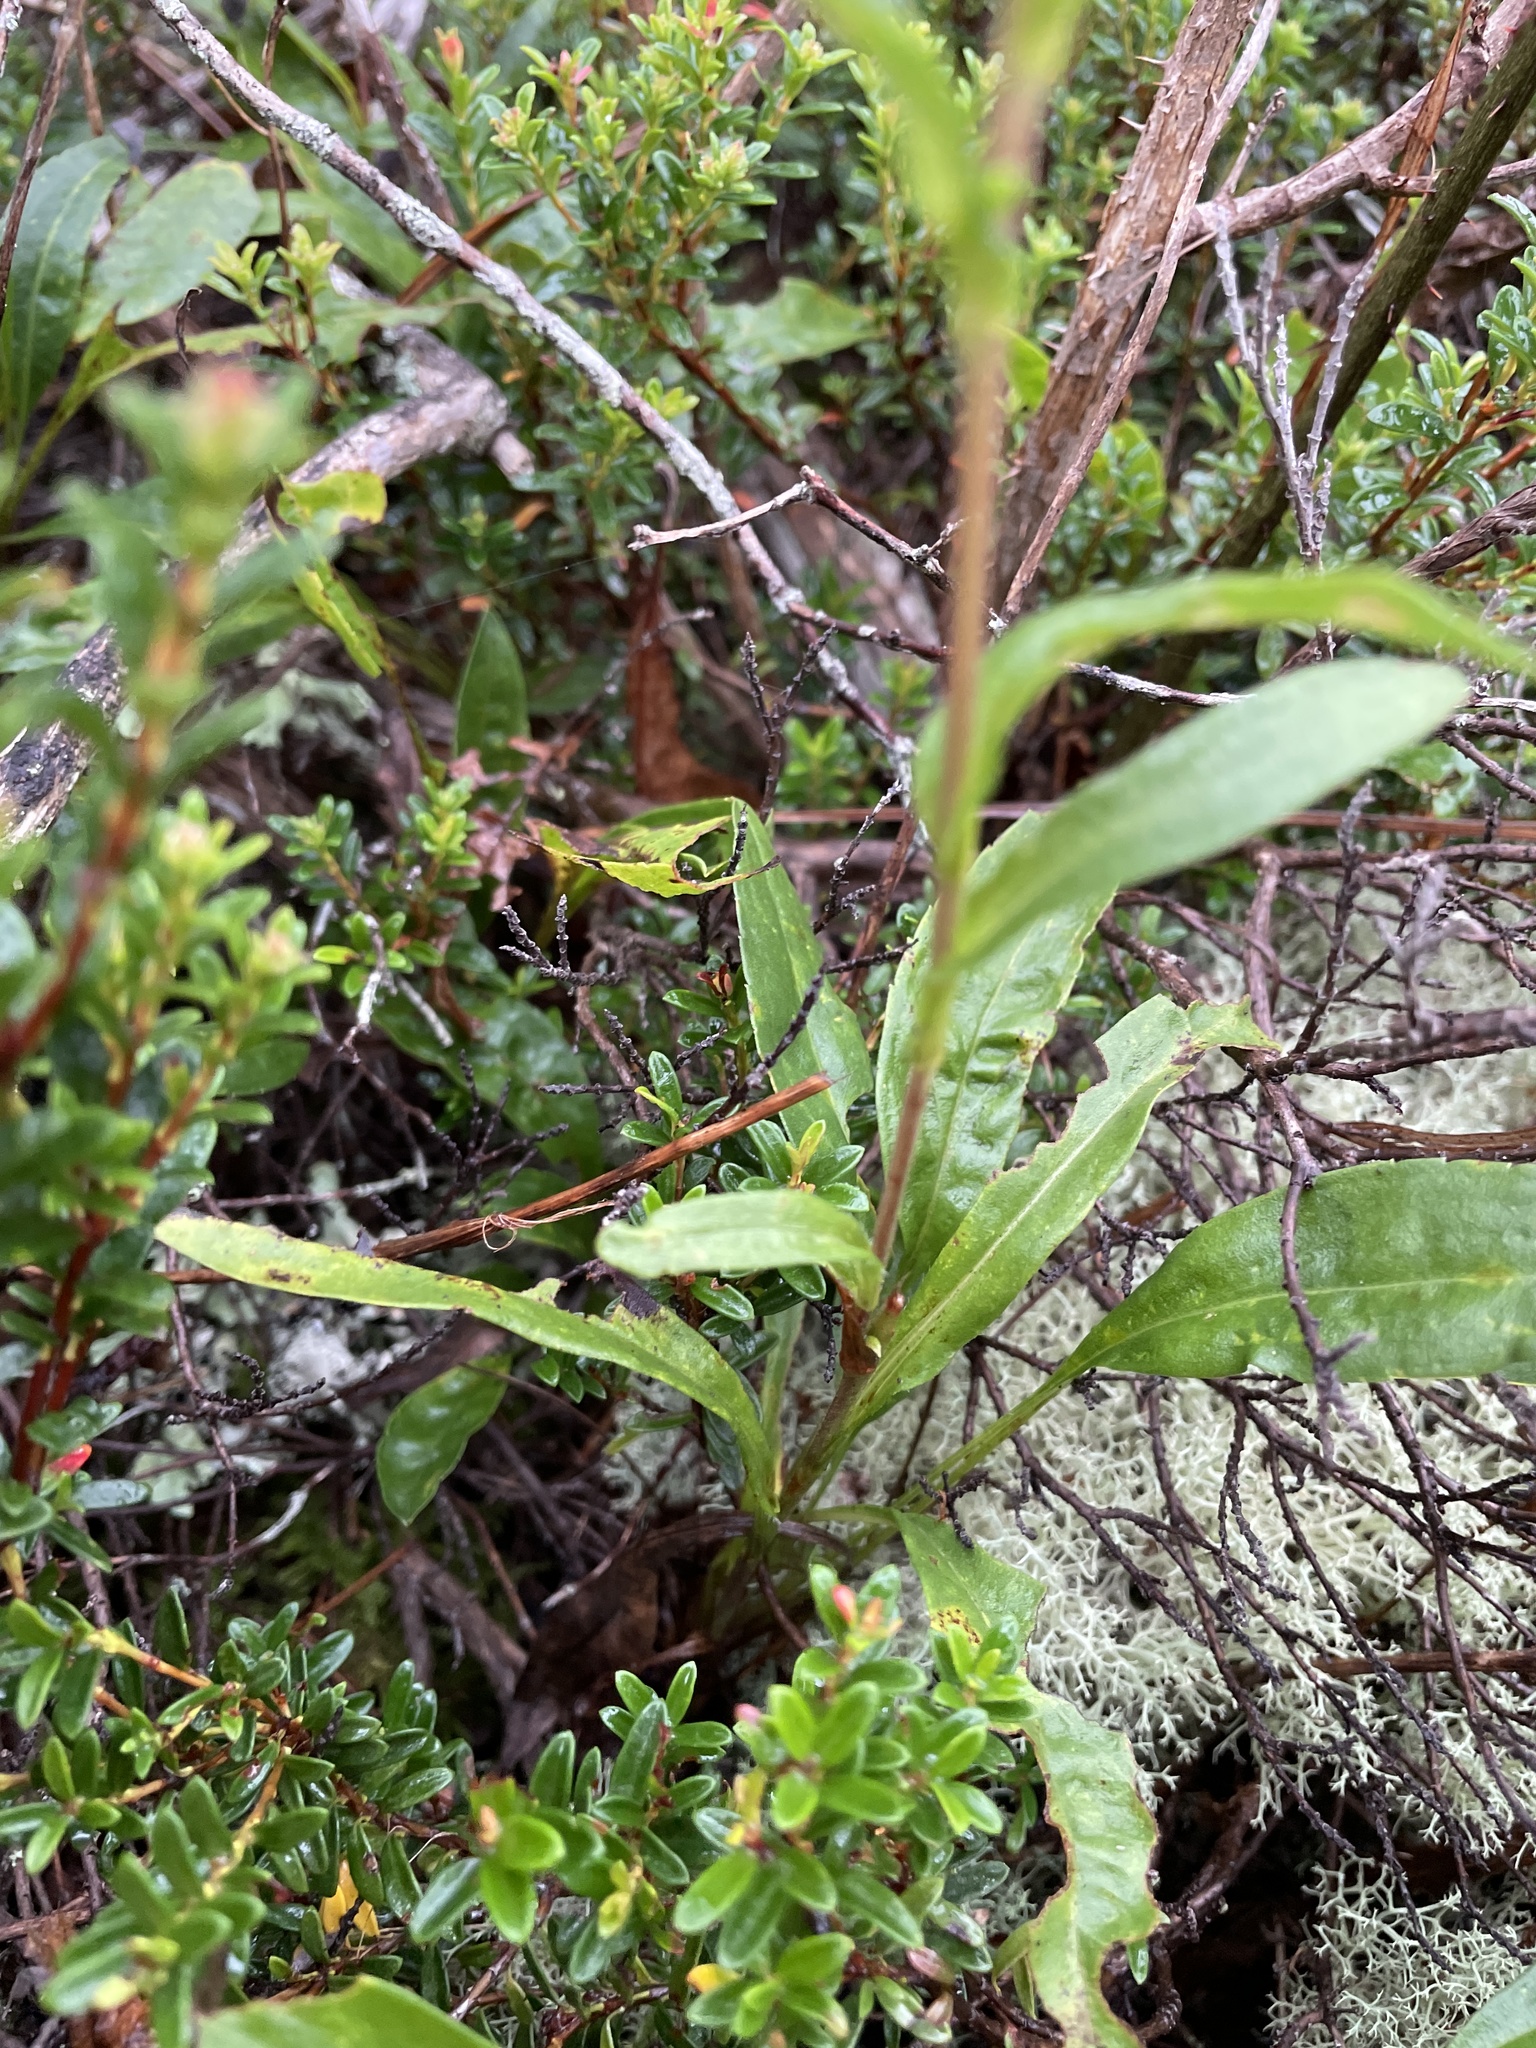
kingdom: Plantae
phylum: Tracheophyta
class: Magnoliopsida
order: Asterales
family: Asteraceae
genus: Eurybia
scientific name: Eurybia surculosa
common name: Creeping aster
